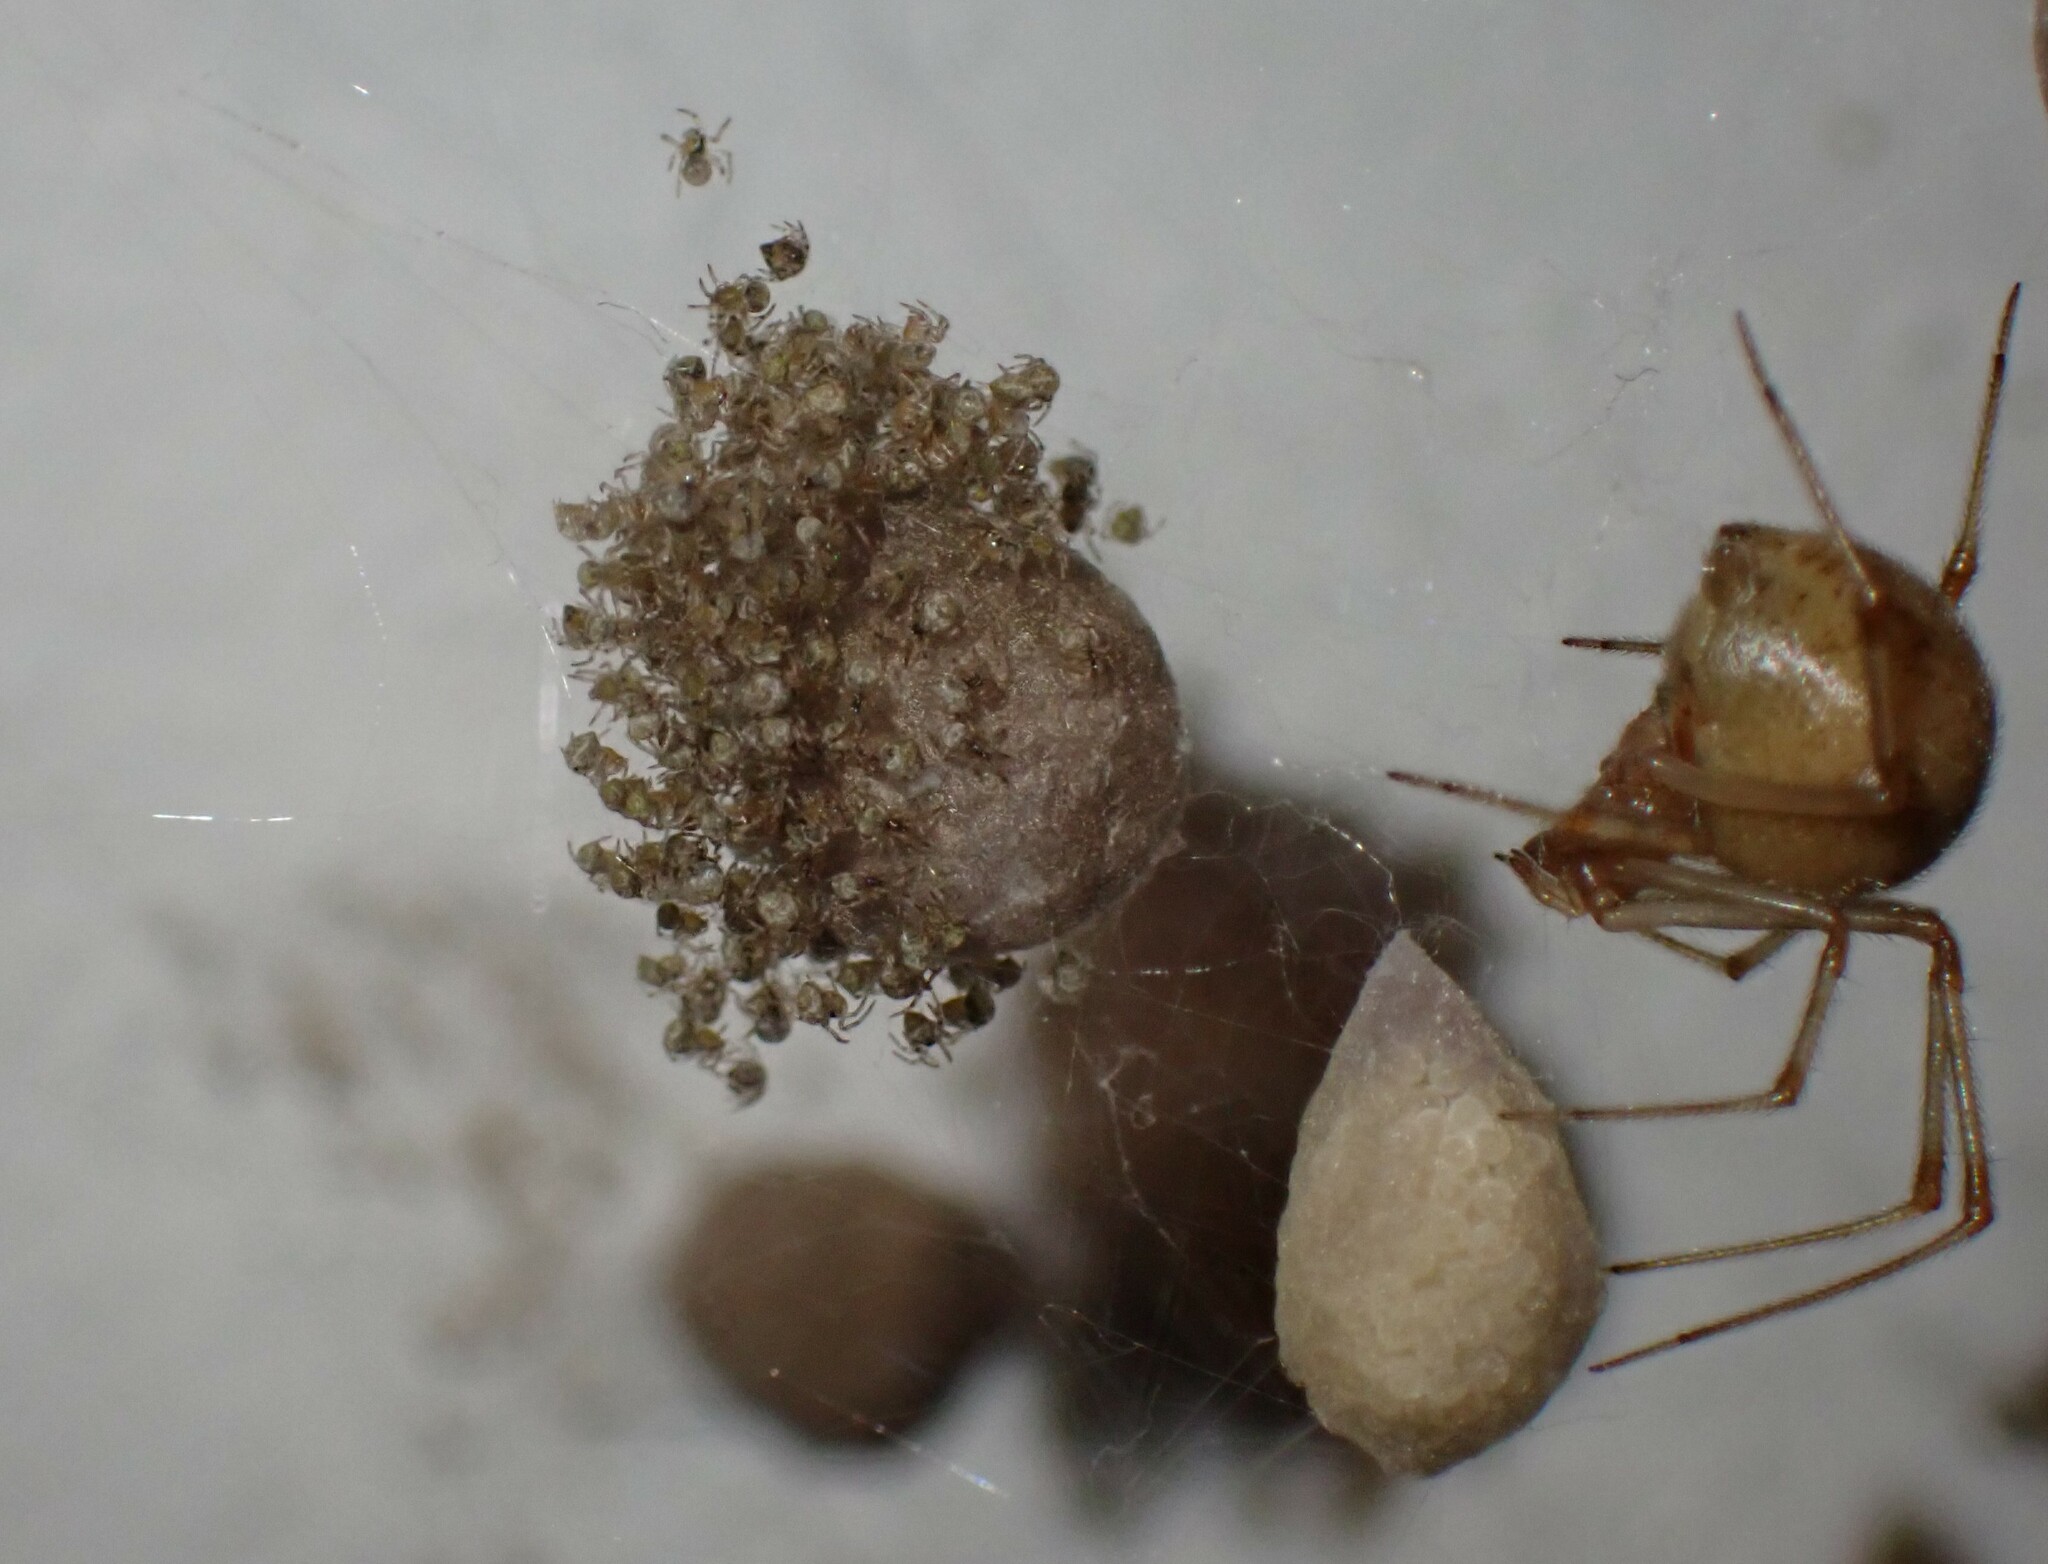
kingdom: Animalia
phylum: Arthropoda
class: Arachnida
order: Araneae
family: Theridiidae
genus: Parasteatoda
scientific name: Parasteatoda tepidariorum
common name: Common house spider
